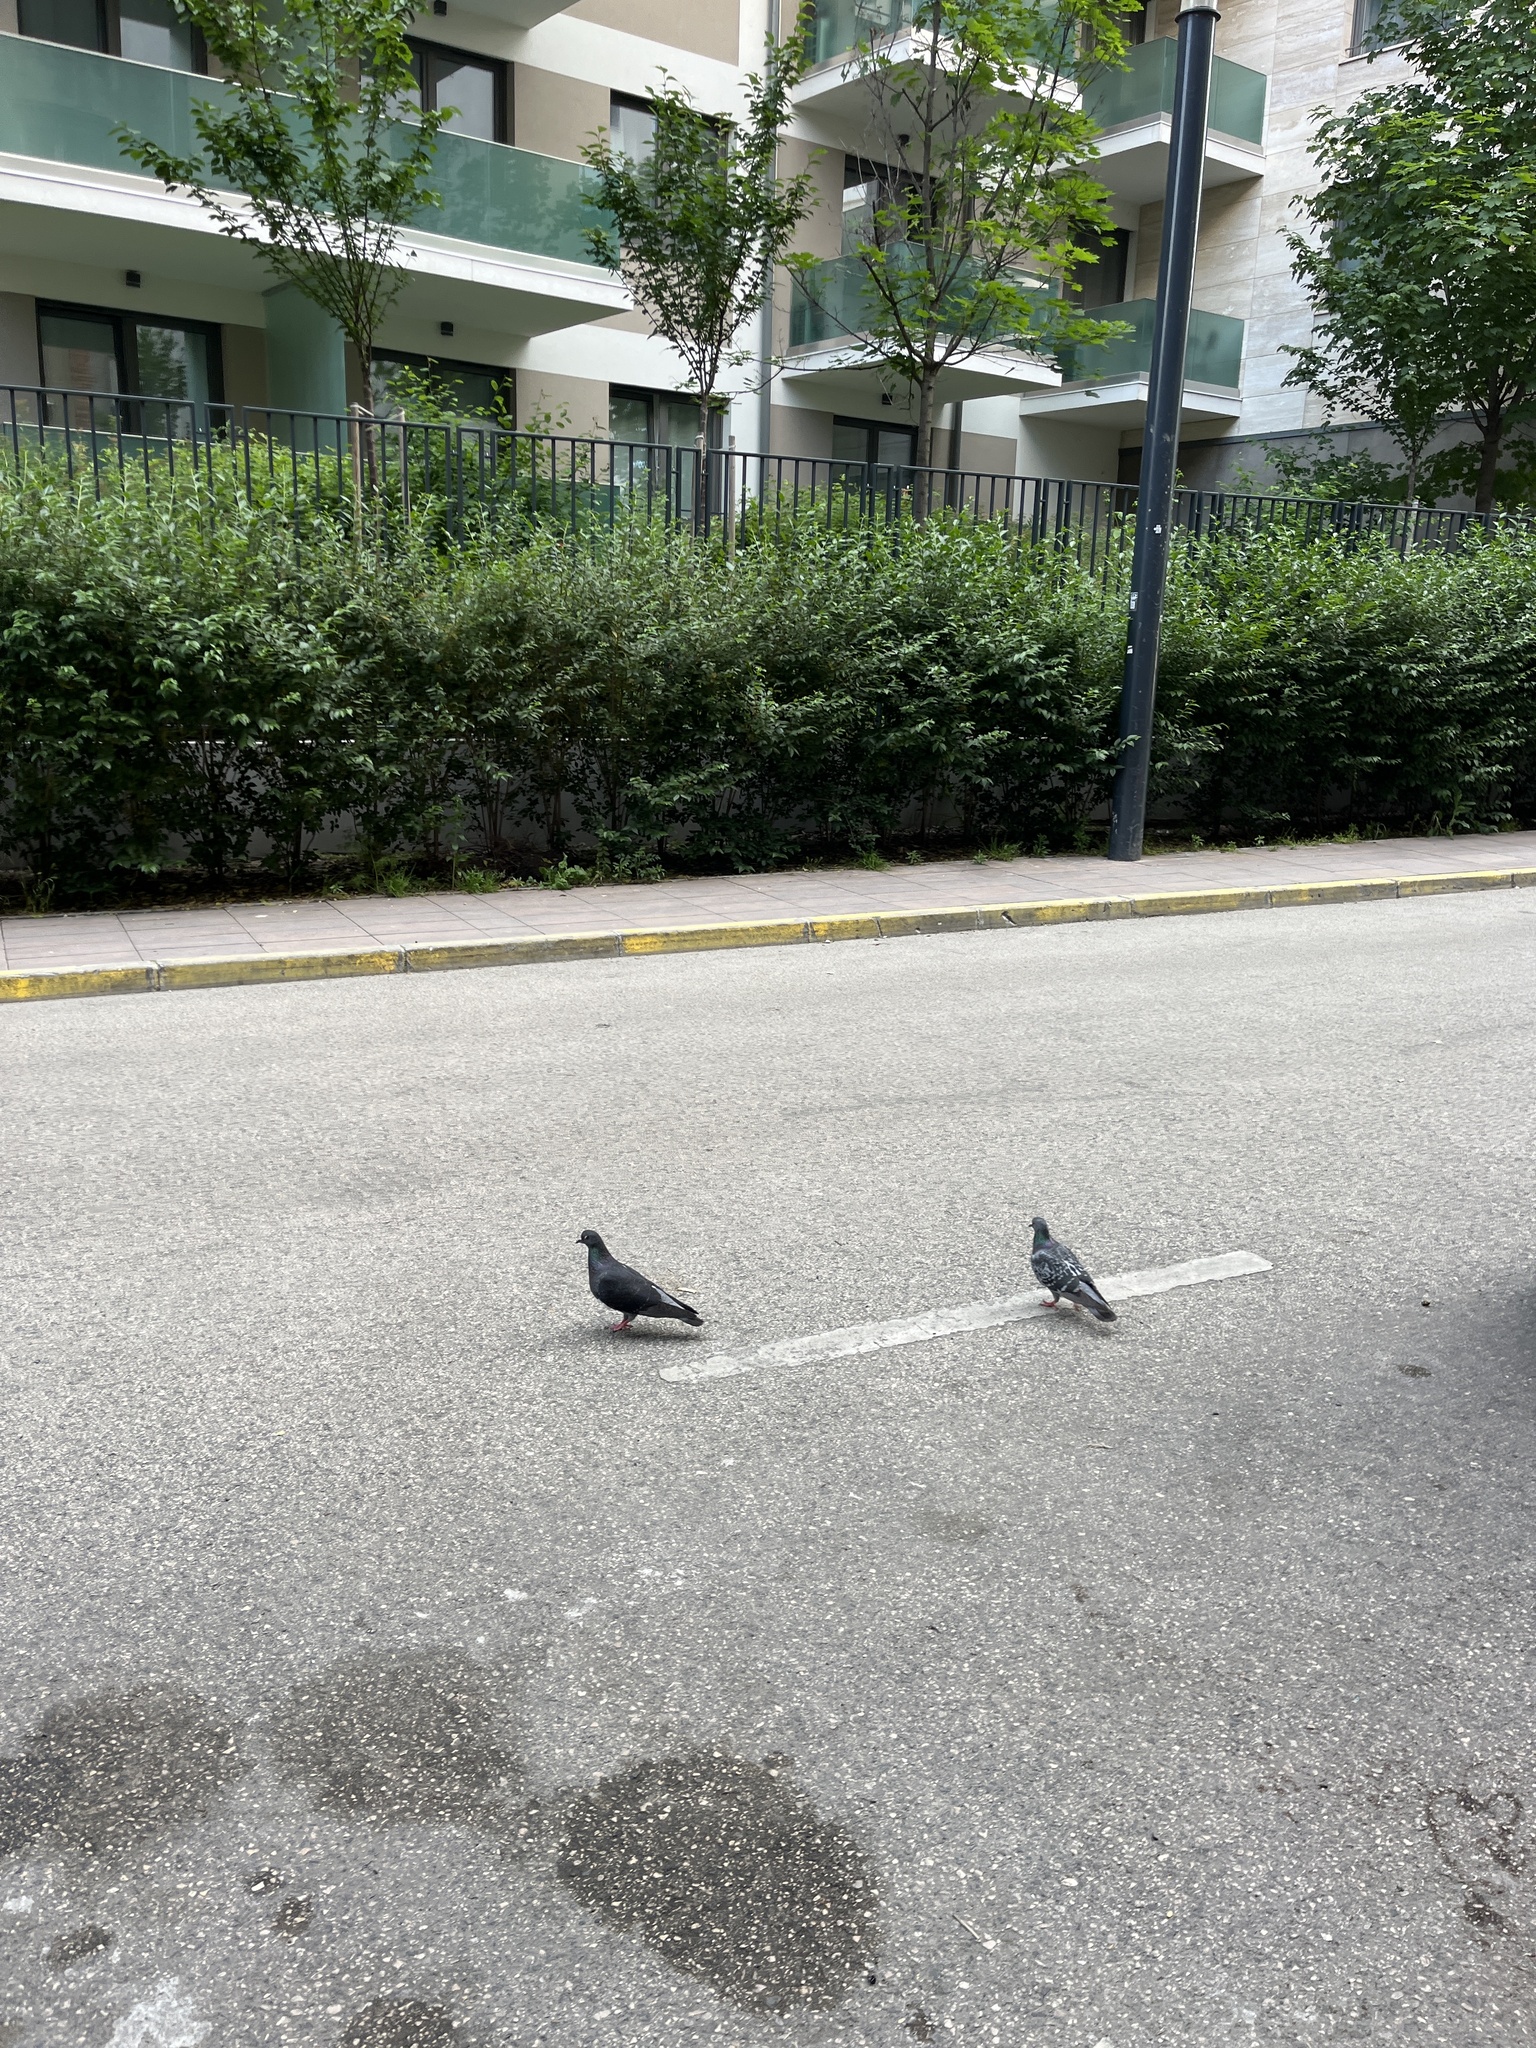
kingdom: Animalia
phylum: Chordata
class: Aves
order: Columbiformes
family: Columbidae
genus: Columba
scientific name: Columba livia
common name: Rock pigeon
